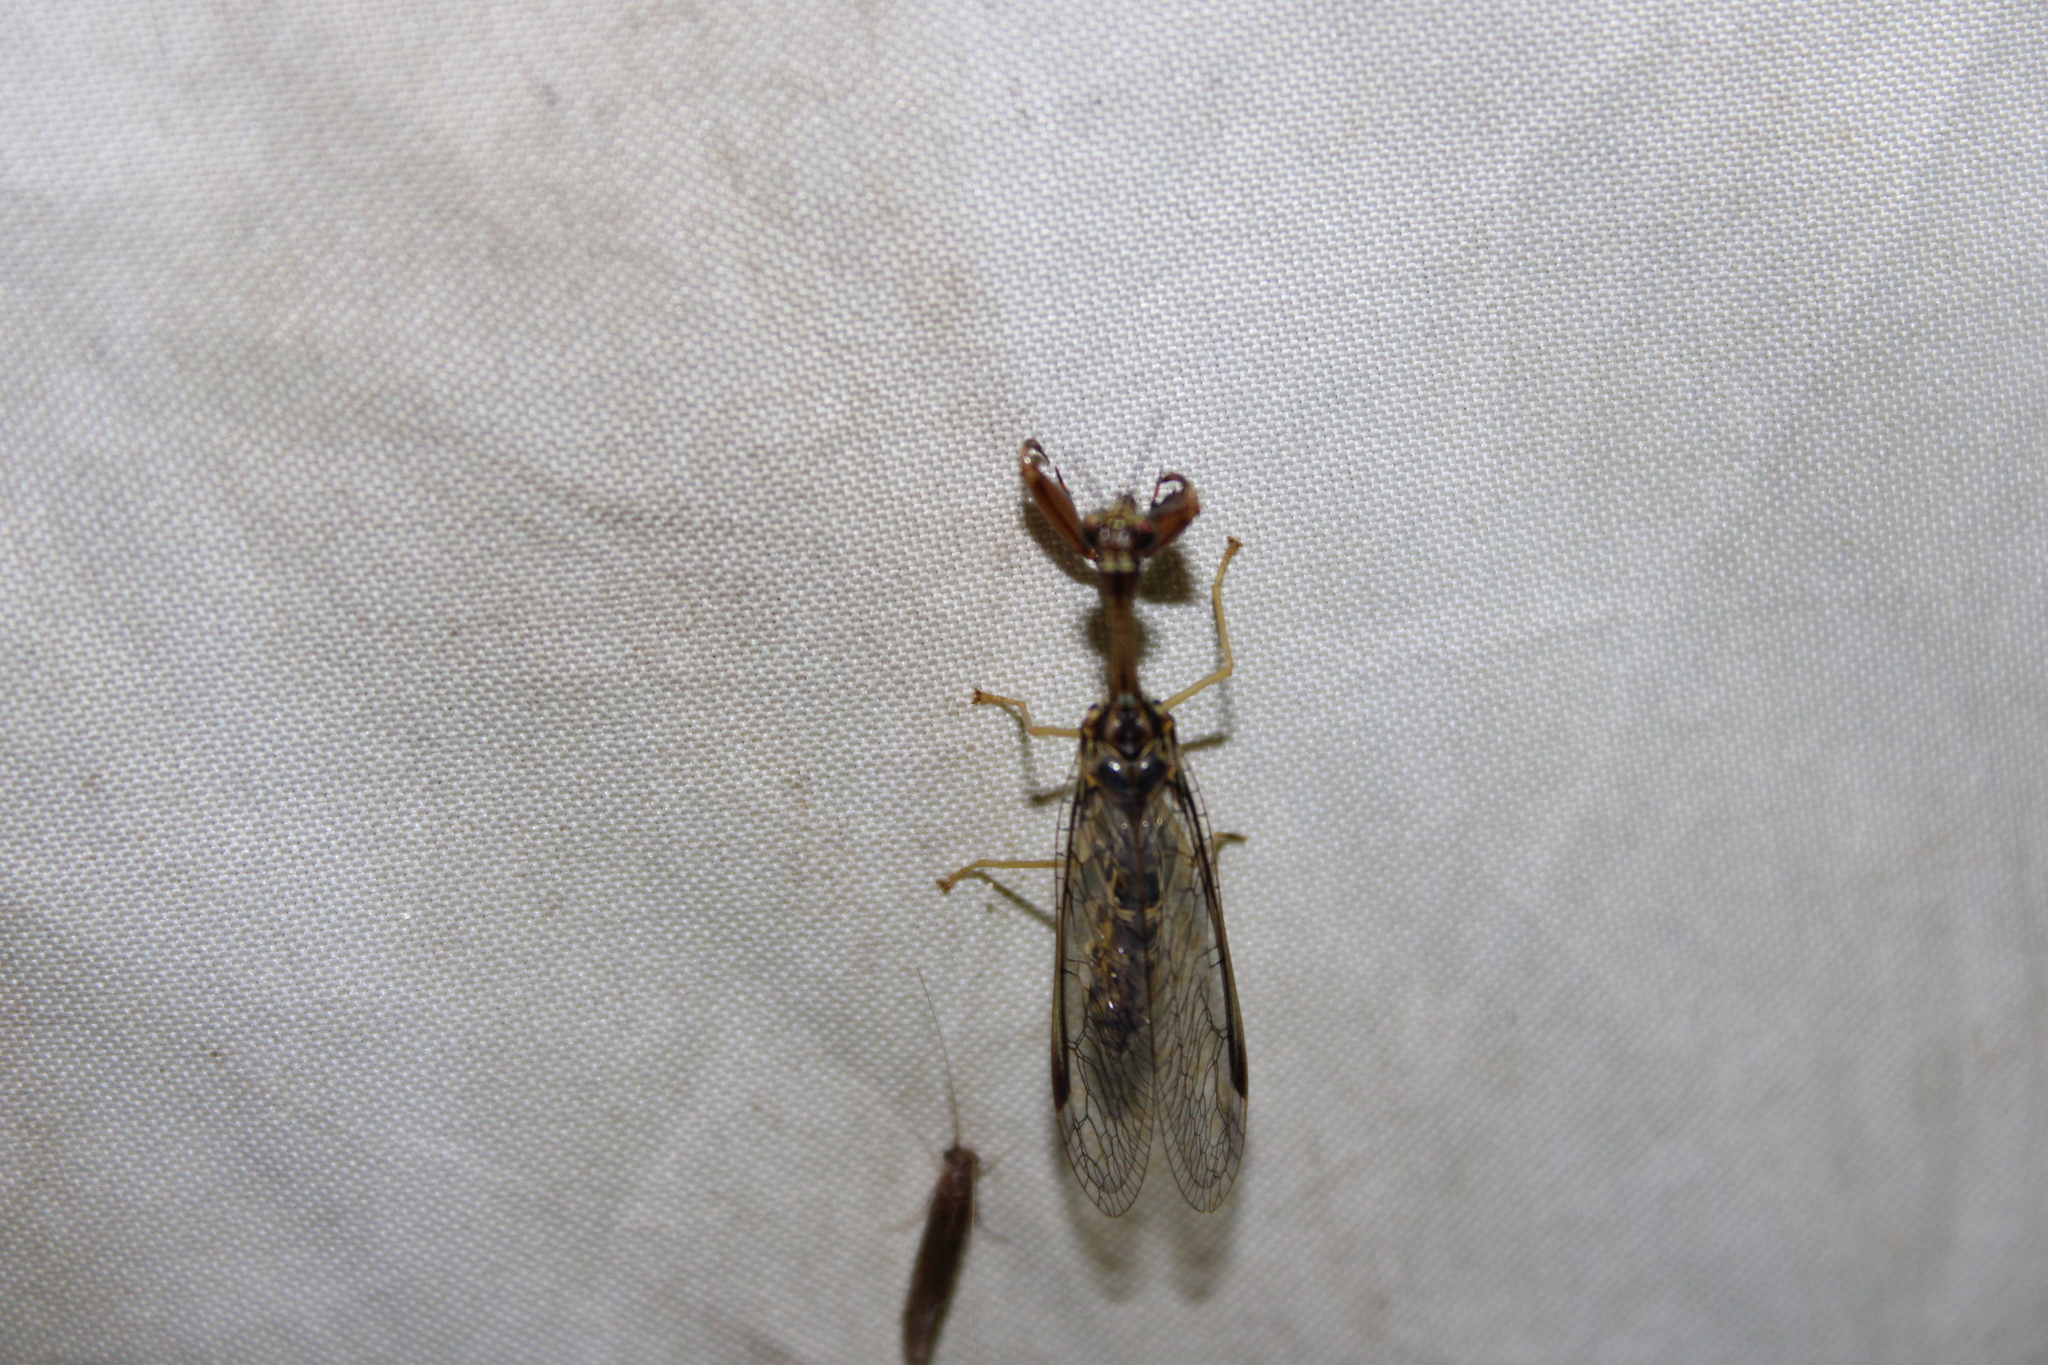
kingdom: Animalia
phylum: Arthropoda
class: Insecta
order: Neuroptera
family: Mantispidae
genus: Dicromantispa
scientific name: Dicromantispa sayi
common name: Say's mantidfly
